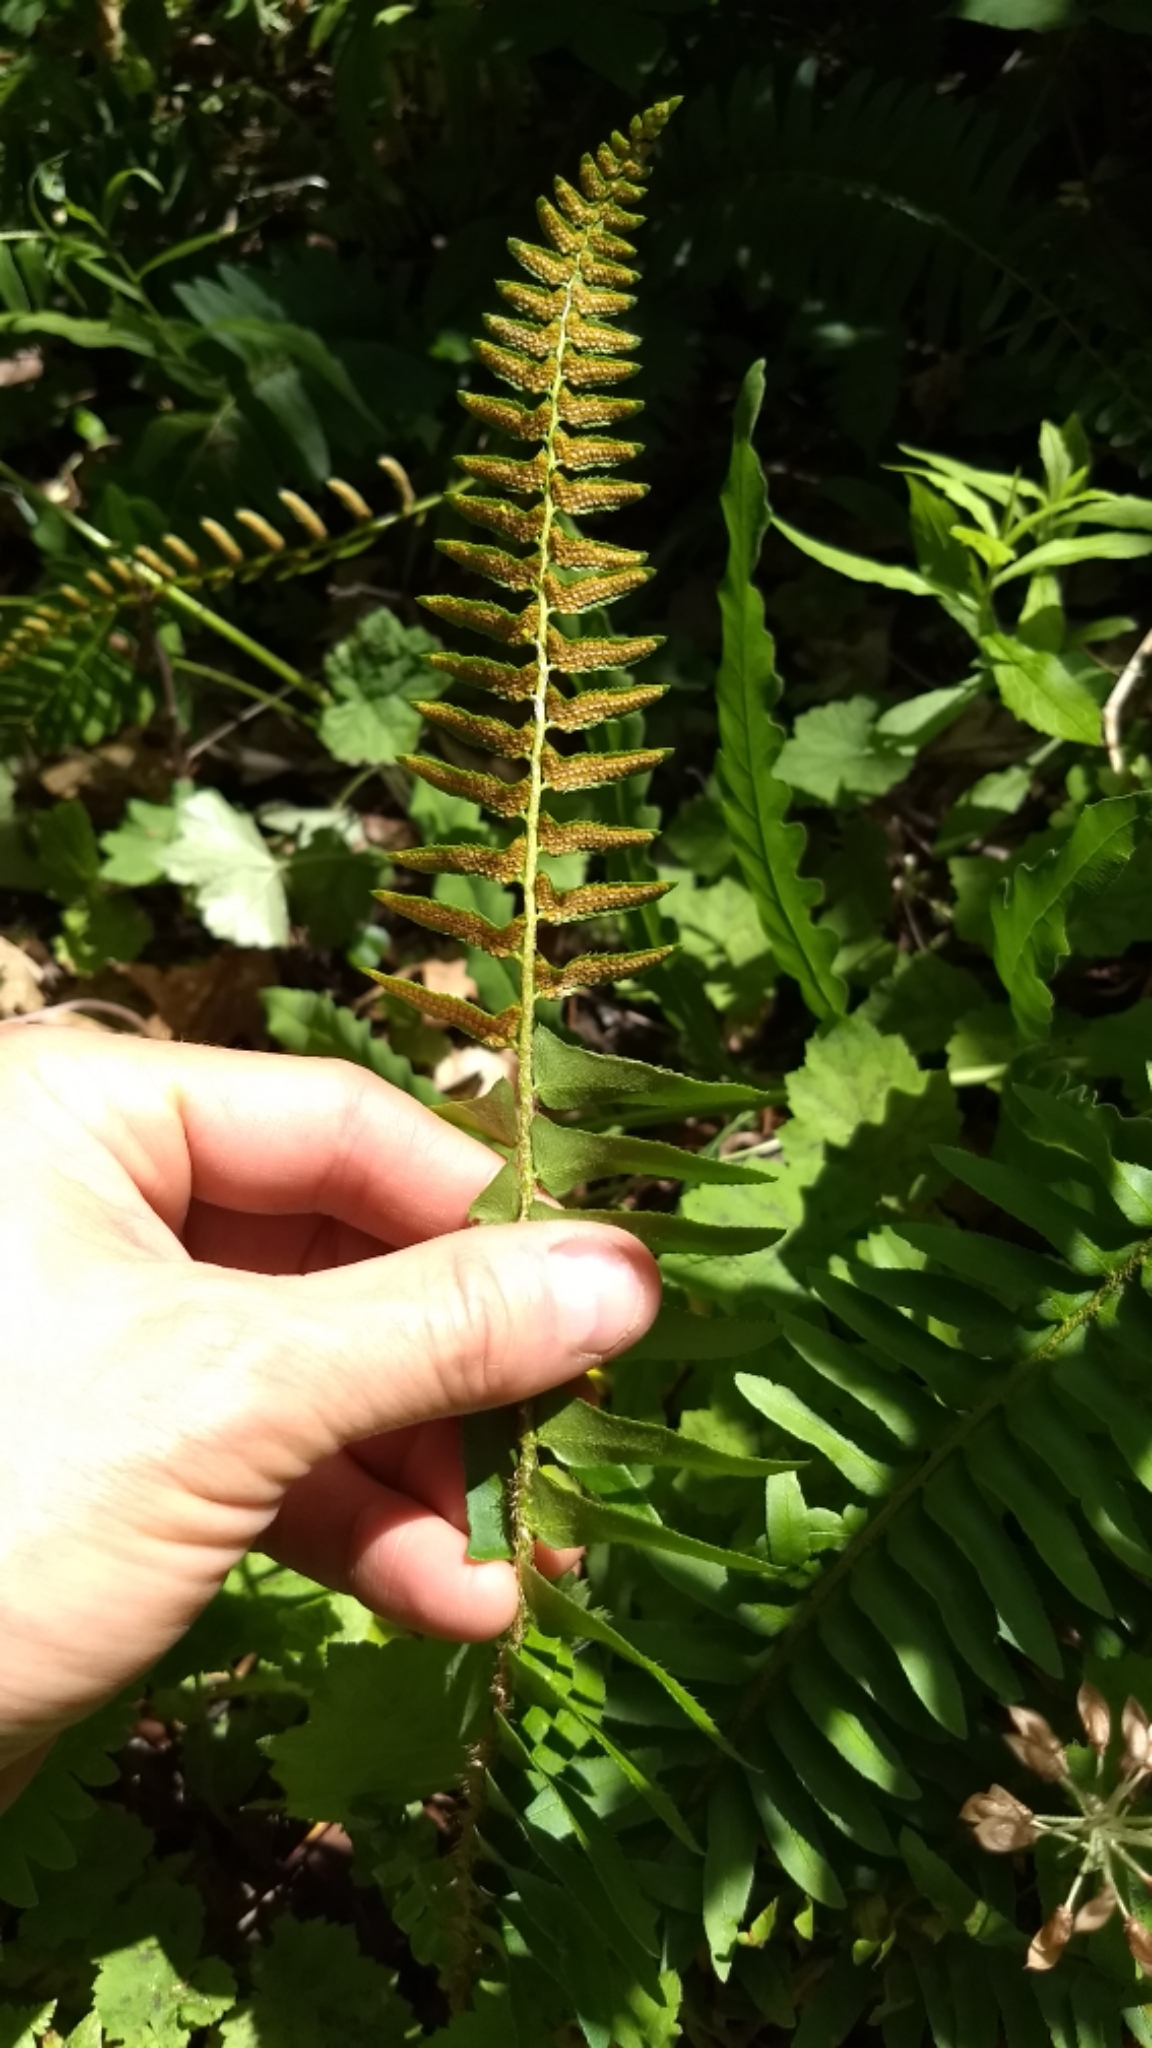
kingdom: Plantae
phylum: Tracheophyta
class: Polypodiopsida
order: Polypodiales
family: Dryopteridaceae
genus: Polystichum
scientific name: Polystichum acrostichoides
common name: Christmas fern
